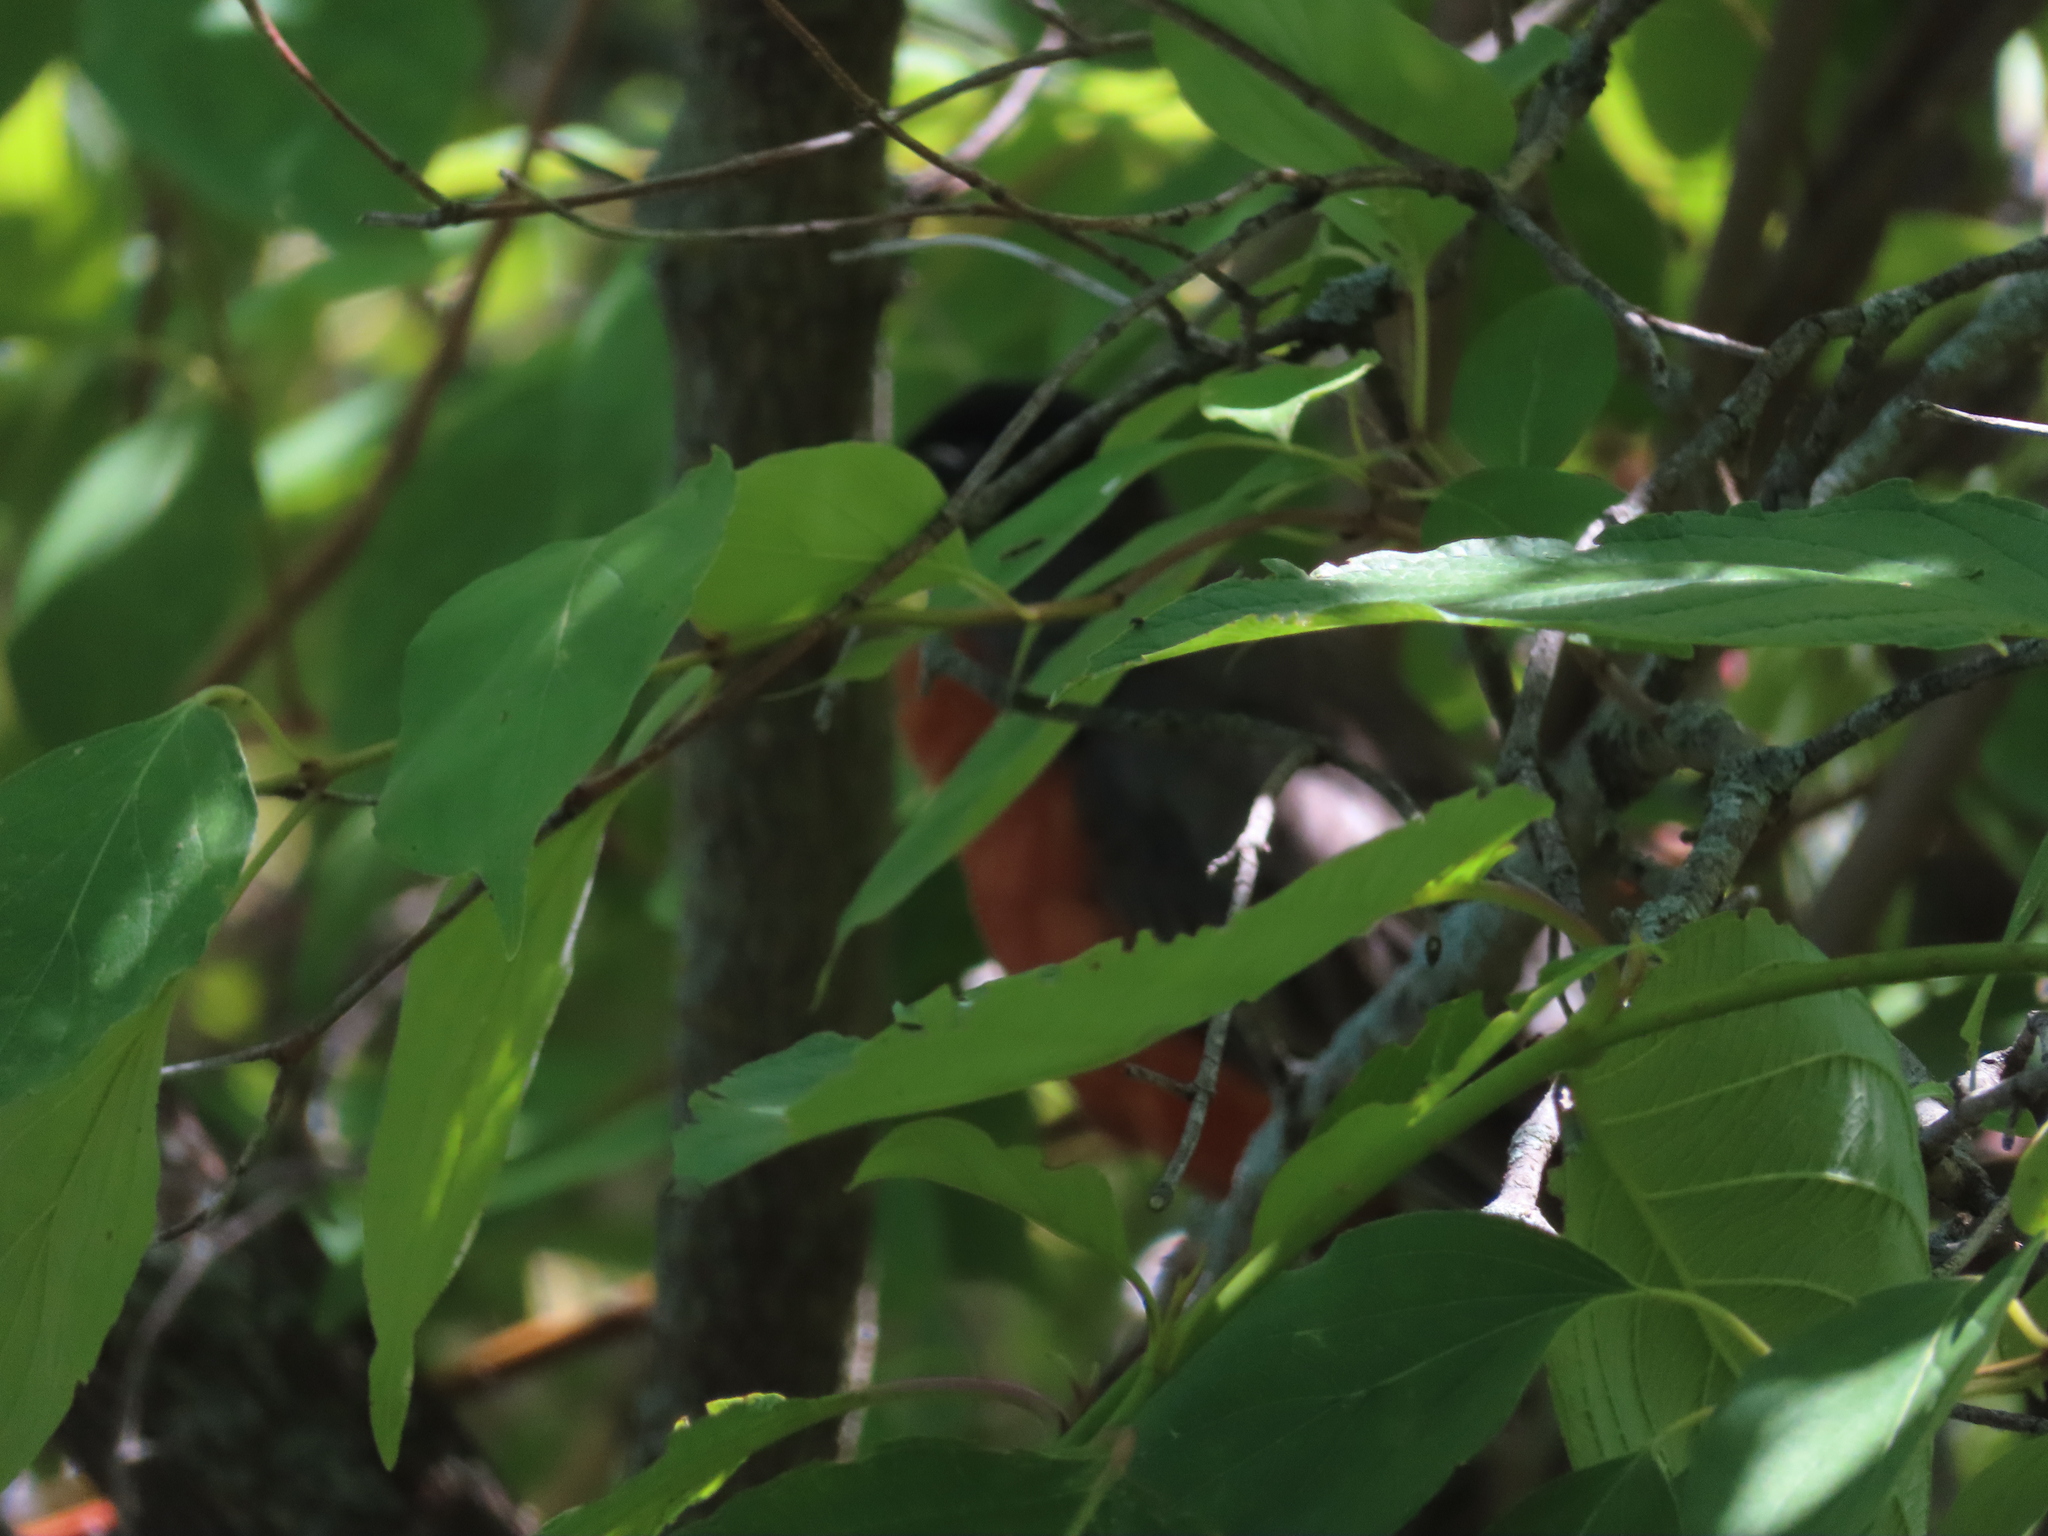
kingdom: Animalia
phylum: Chordata
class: Aves
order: Passeriformes
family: Turdidae
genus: Turdus
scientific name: Turdus migratorius
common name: American robin
